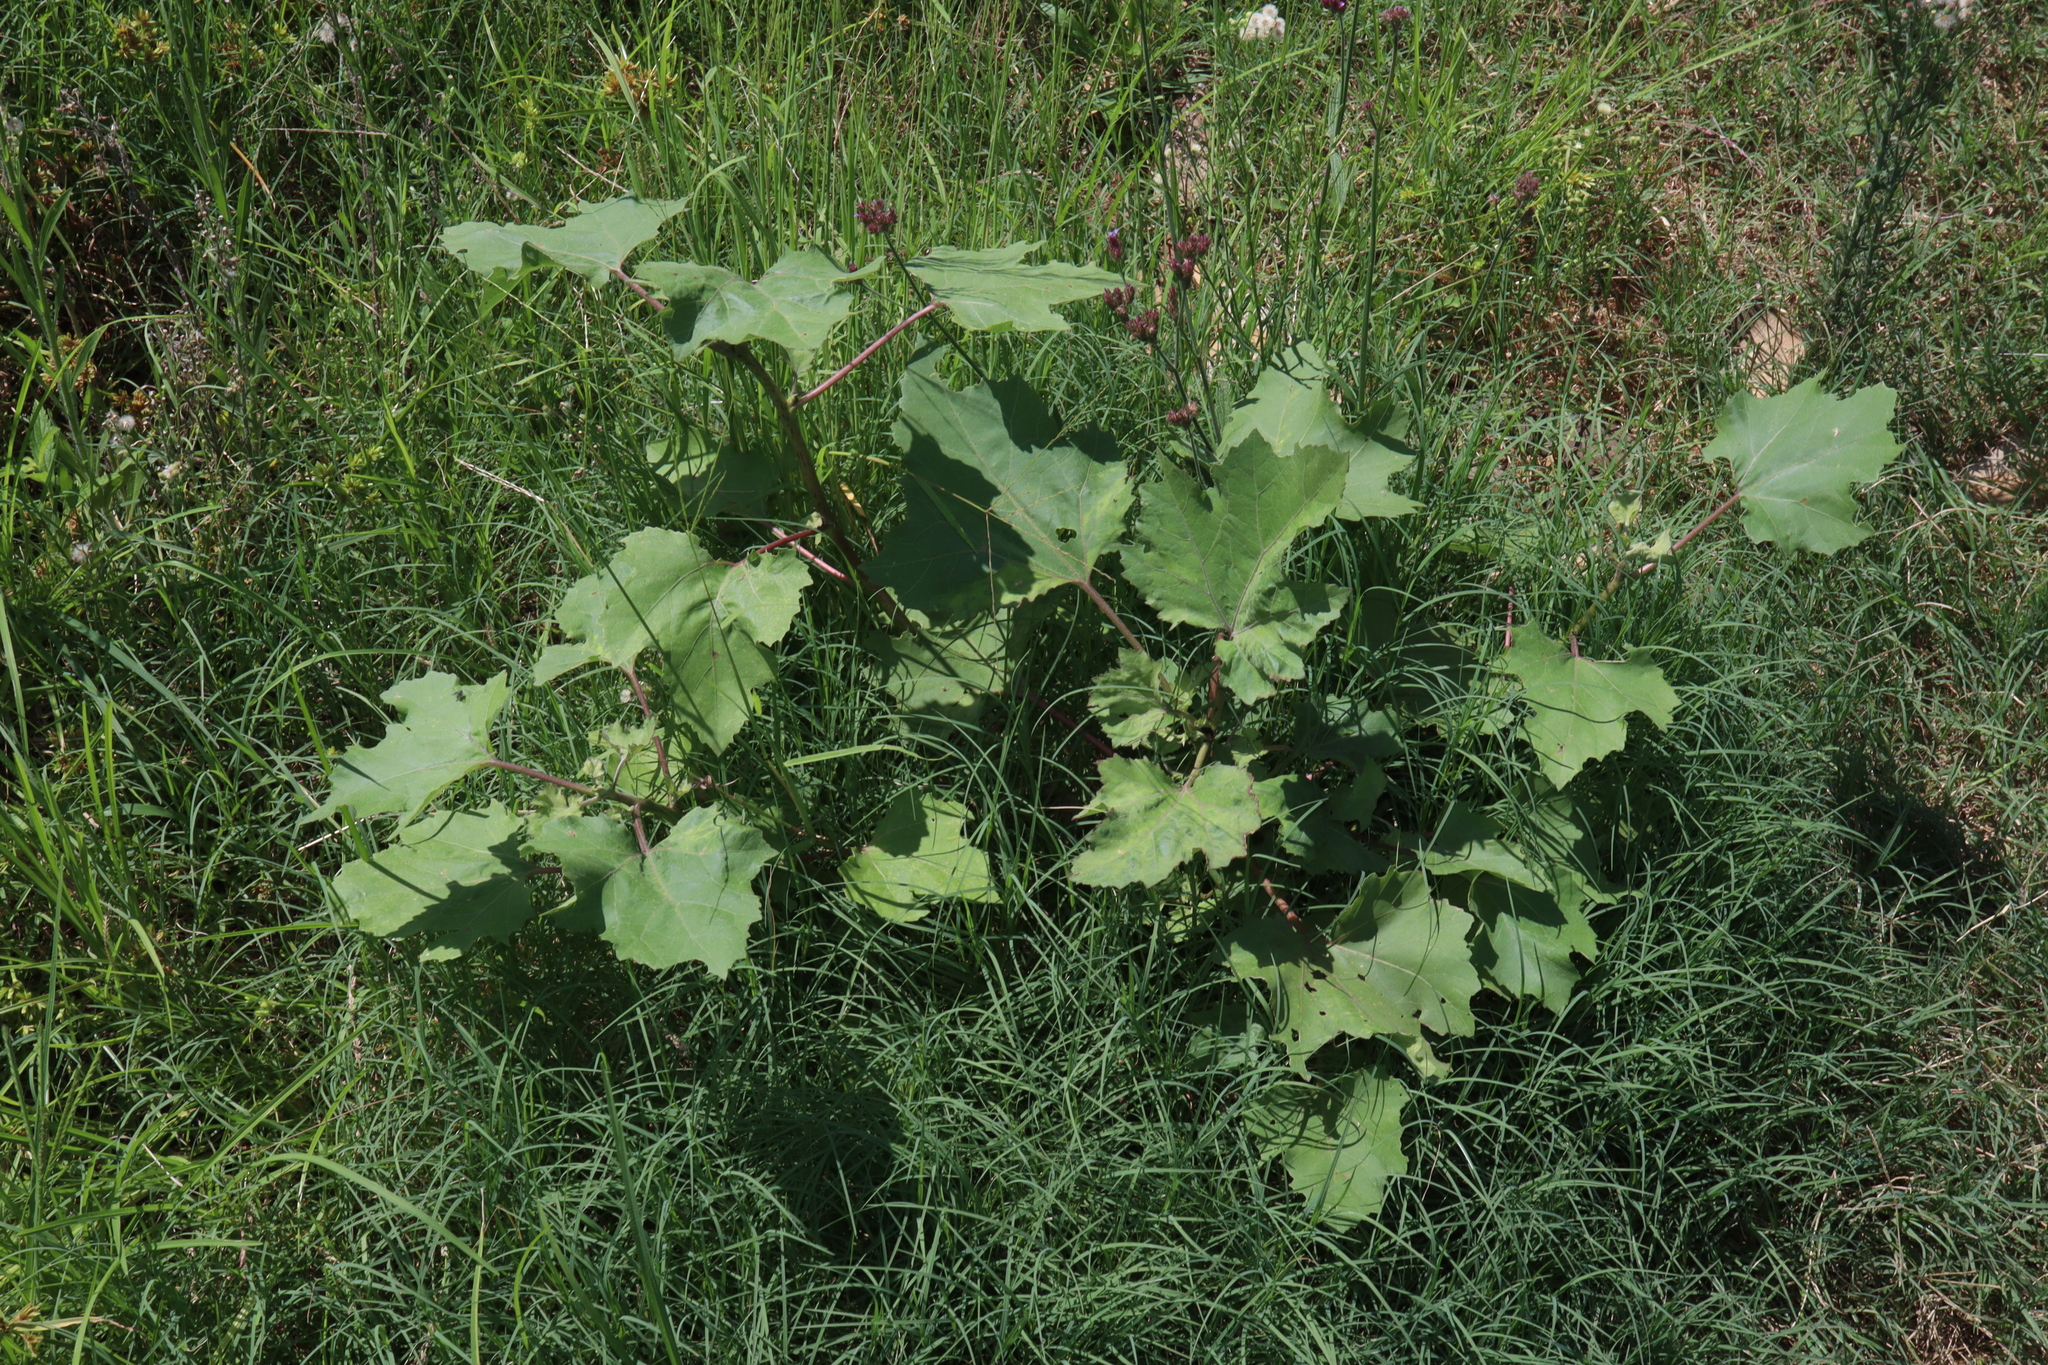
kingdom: Plantae
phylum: Tracheophyta
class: Magnoliopsida
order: Asterales
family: Asteraceae
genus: Xanthium
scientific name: Xanthium strumarium
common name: Rough cocklebur
